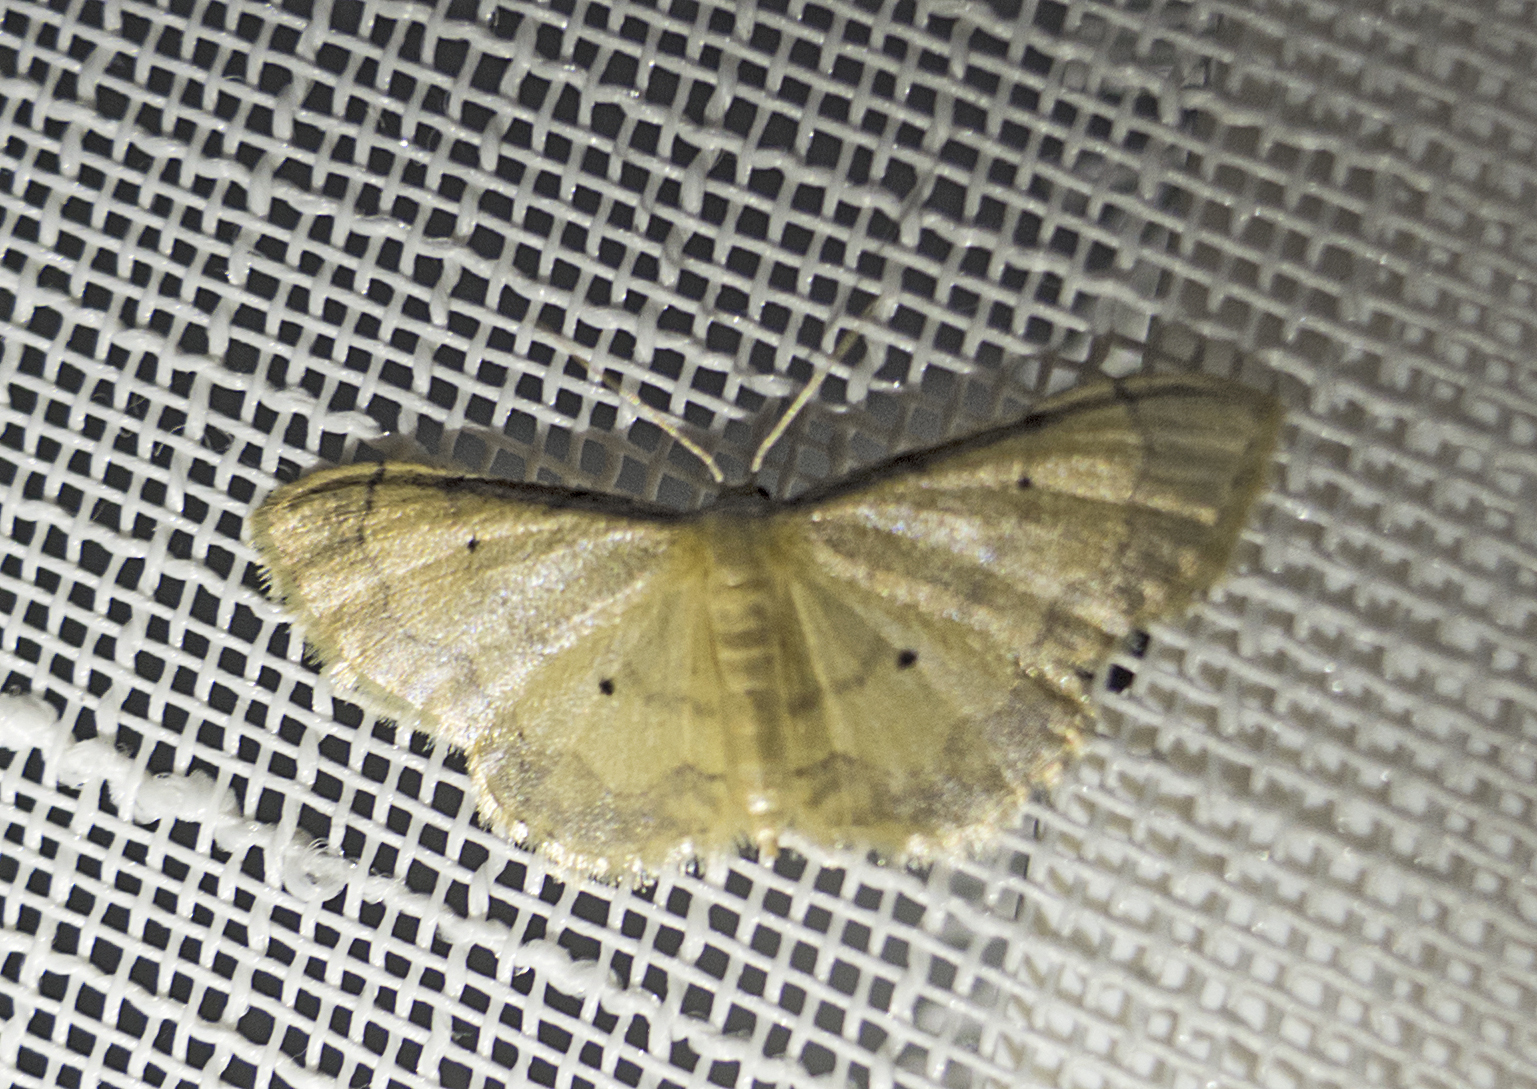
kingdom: Animalia
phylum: Arthropoda
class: Insecta
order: Lepidoptera
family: Geometridae
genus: Idaea
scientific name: Idaea politaria
